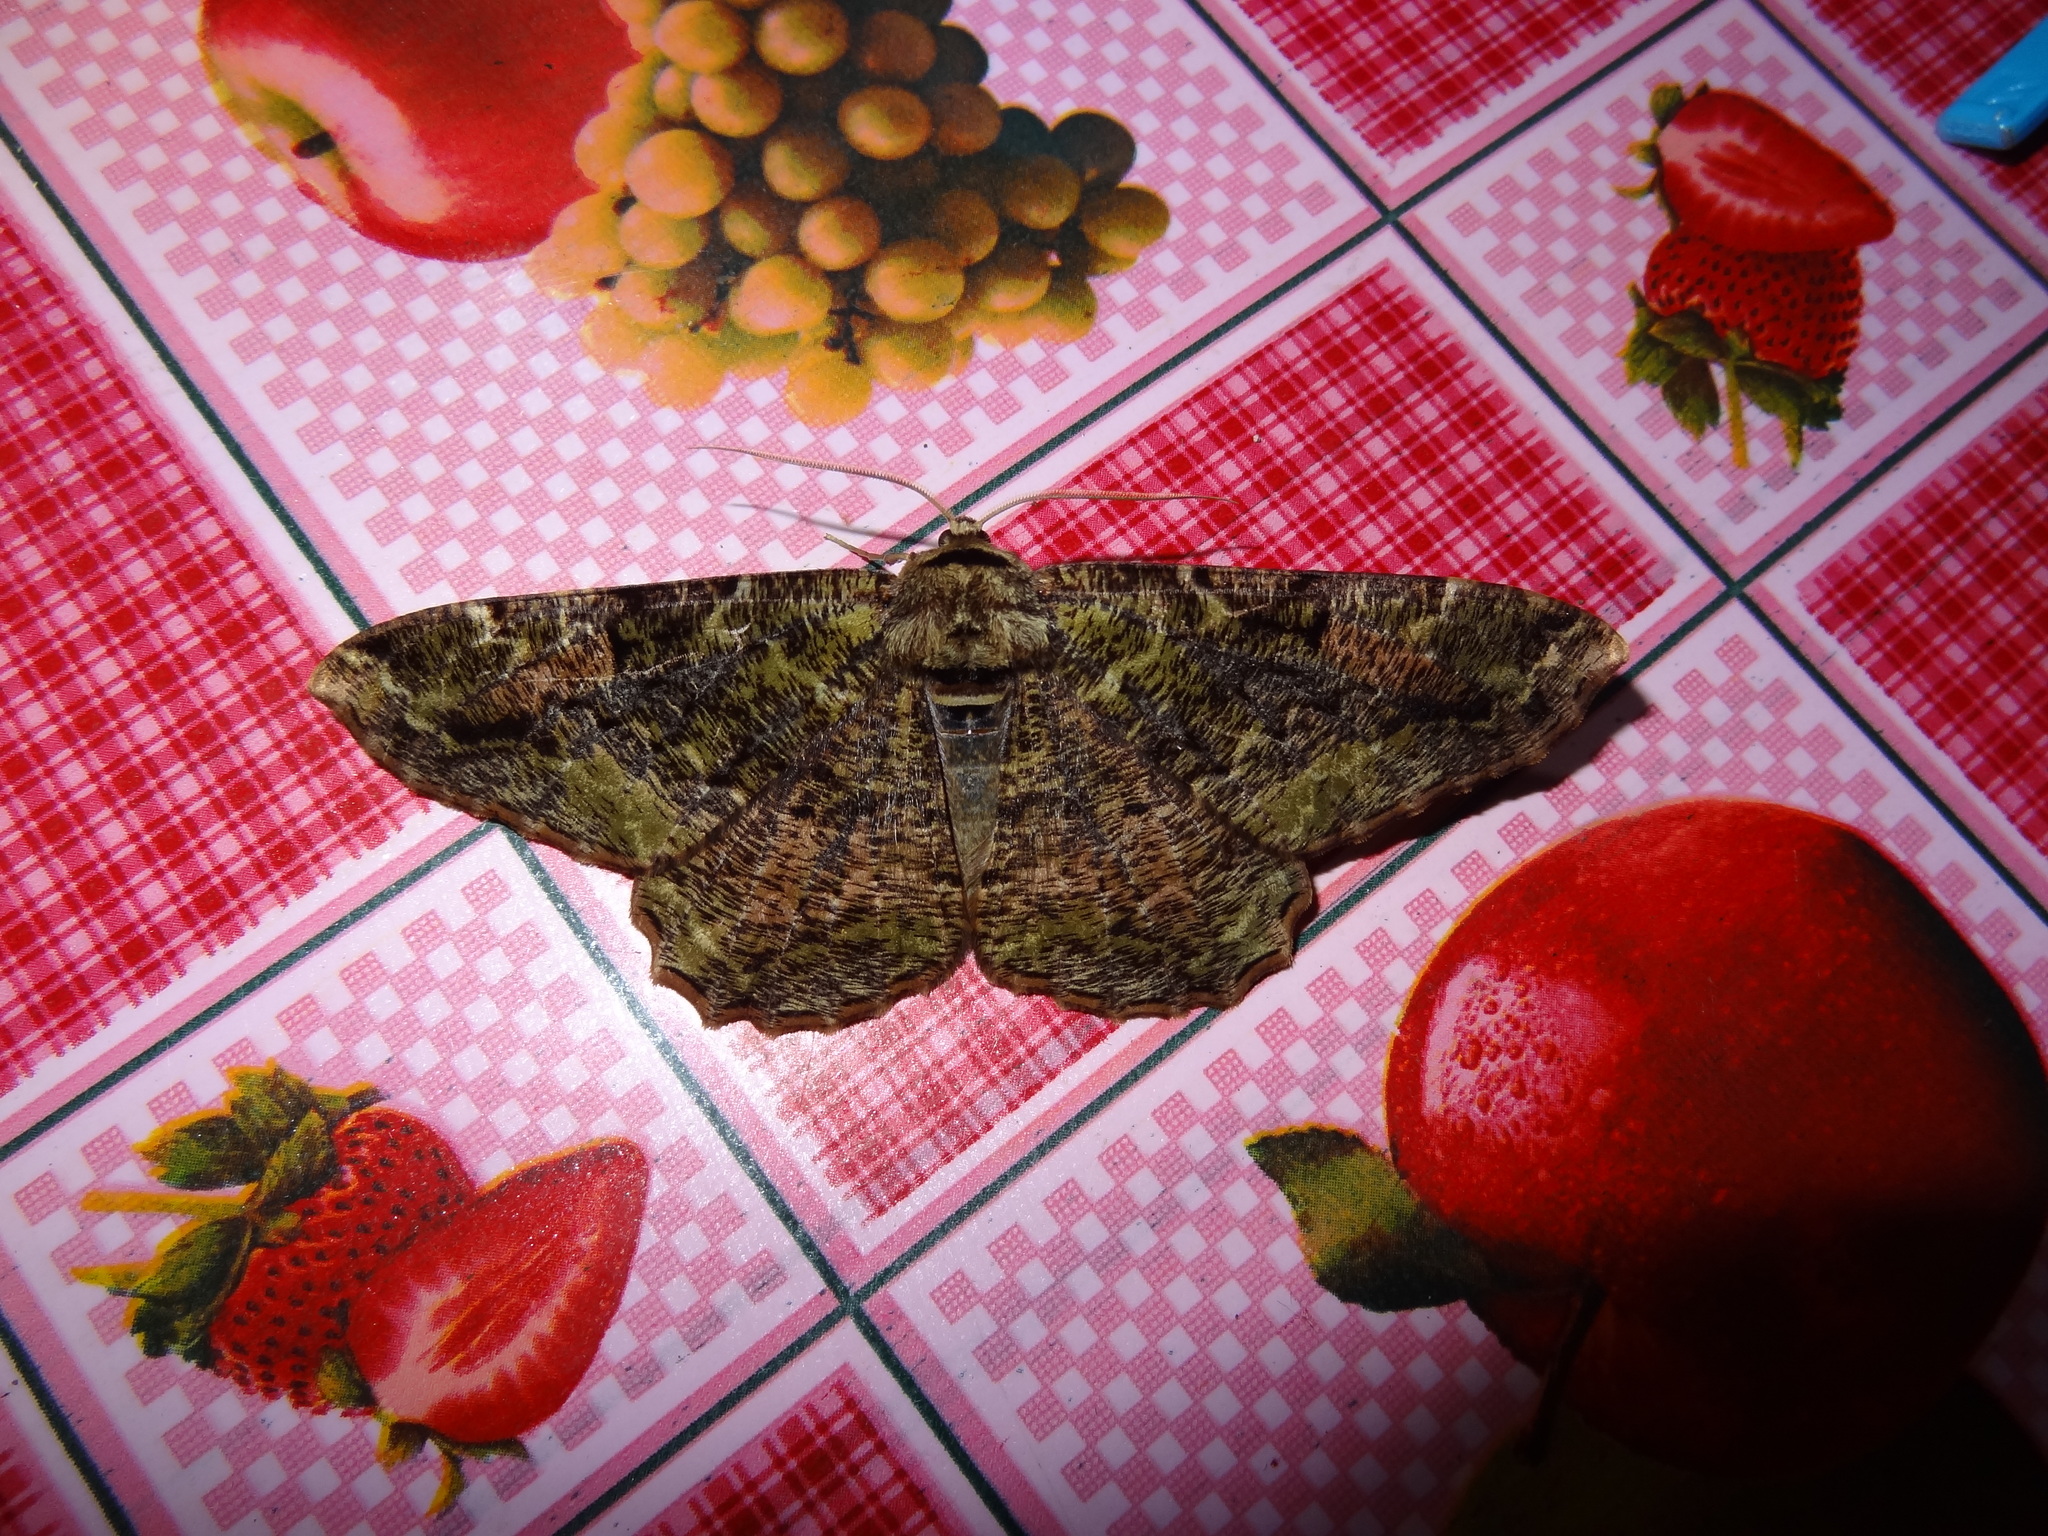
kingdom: Animalia
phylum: Arthropoda
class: Insecta
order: Lepidoptera
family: Geometridae
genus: Blepharoctenucha
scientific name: Blepharoctenucha virescens
